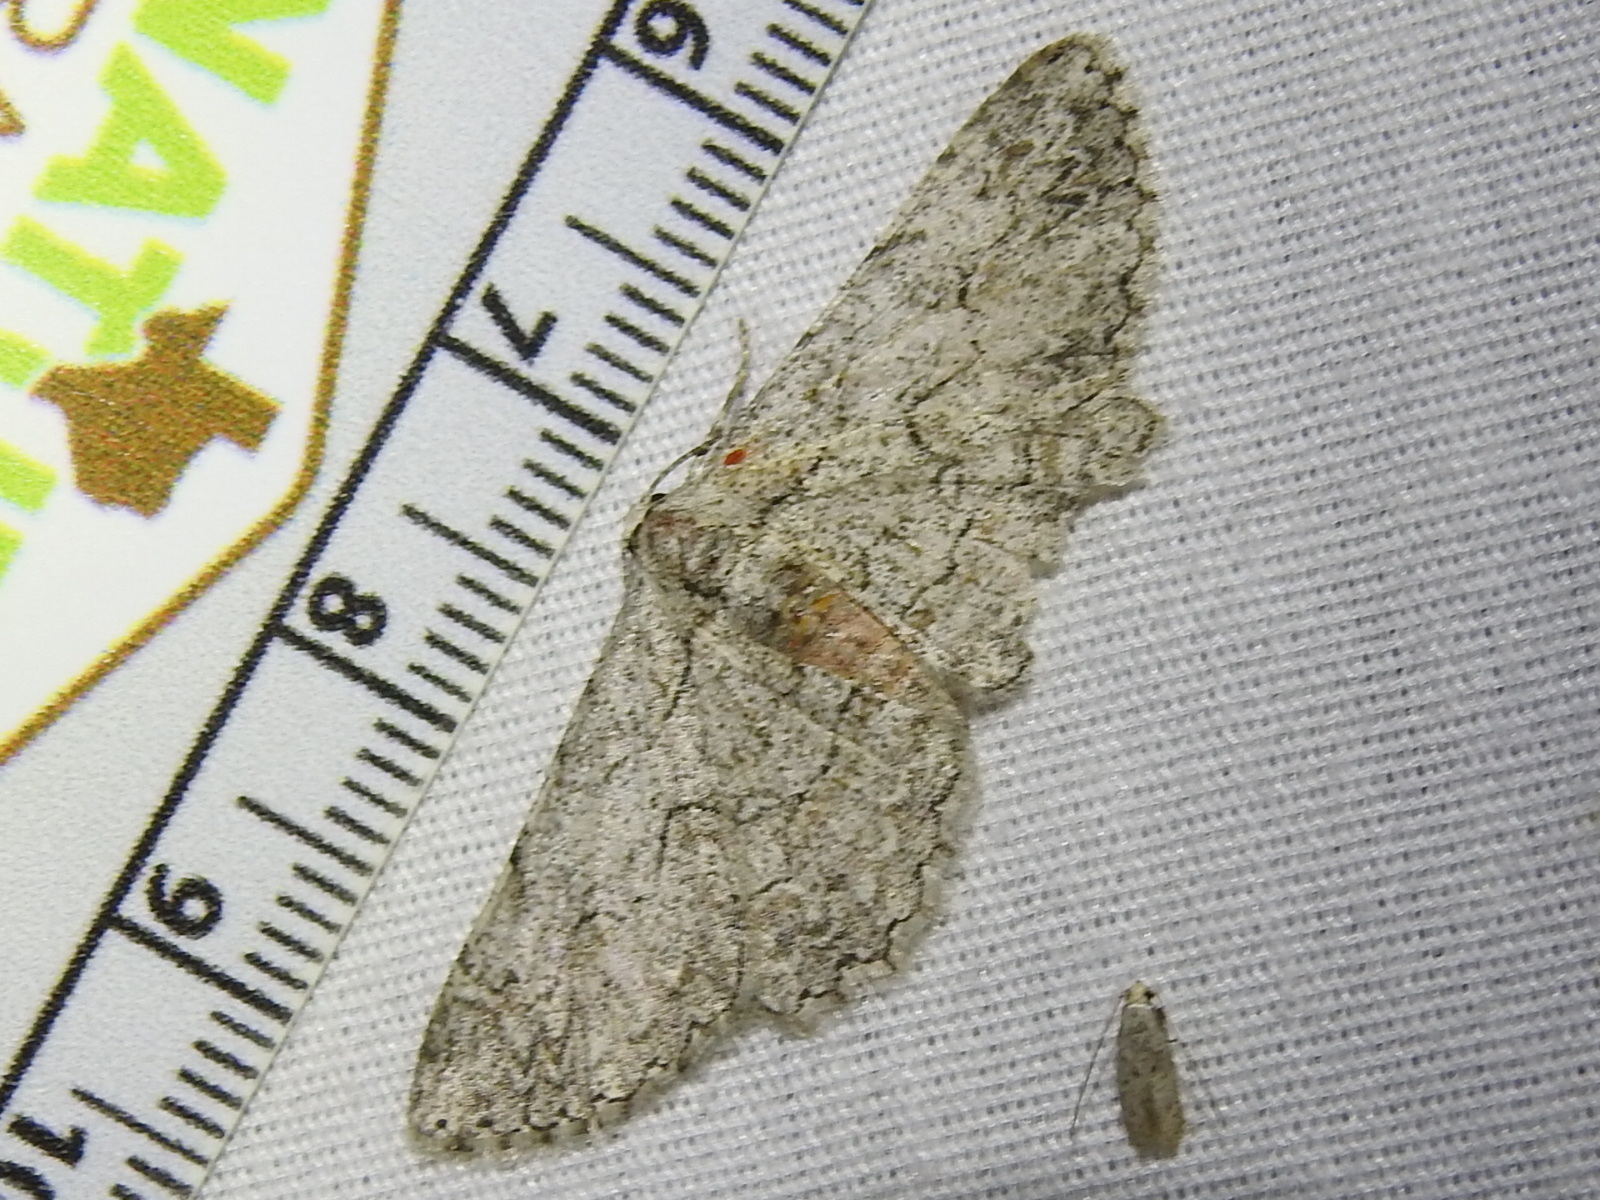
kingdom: Animalia
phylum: Arthropoda
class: Insecta
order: Lepidoptera
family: Geometridae
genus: Iridopsis
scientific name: Iridopsis defectaria
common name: Brown-shaded gray
